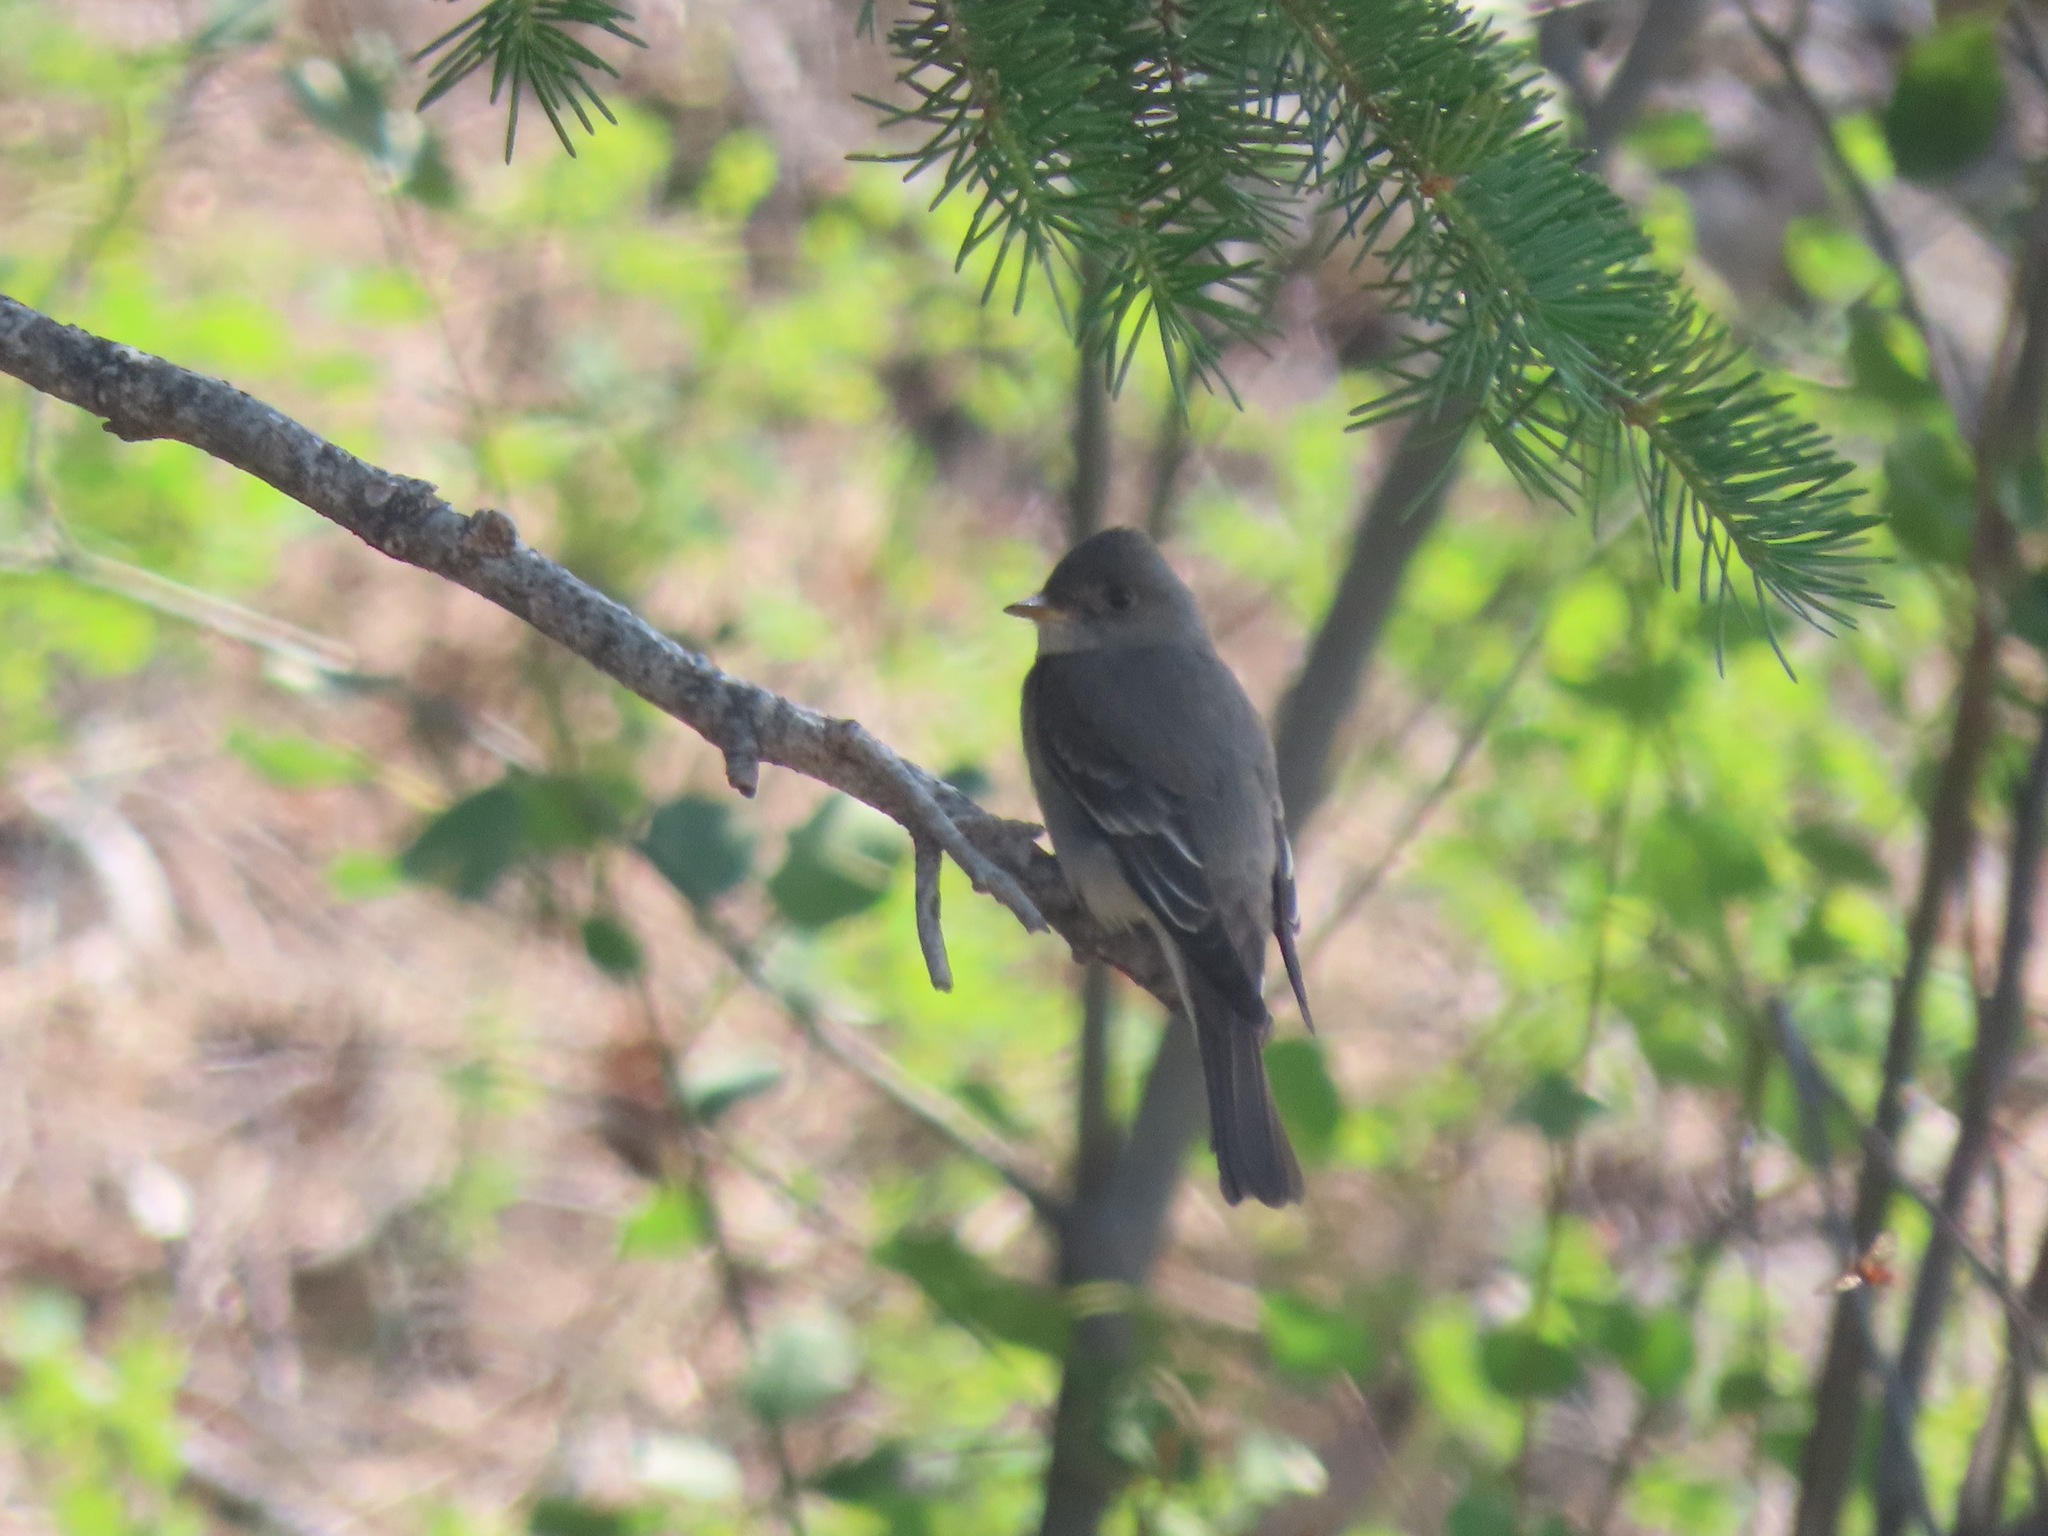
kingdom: Animalia
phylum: Chordata
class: Aves
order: Passeriformes
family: Tyrannidae
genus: Contopus
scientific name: Contopus sordidulus
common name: Western wood-pewee
